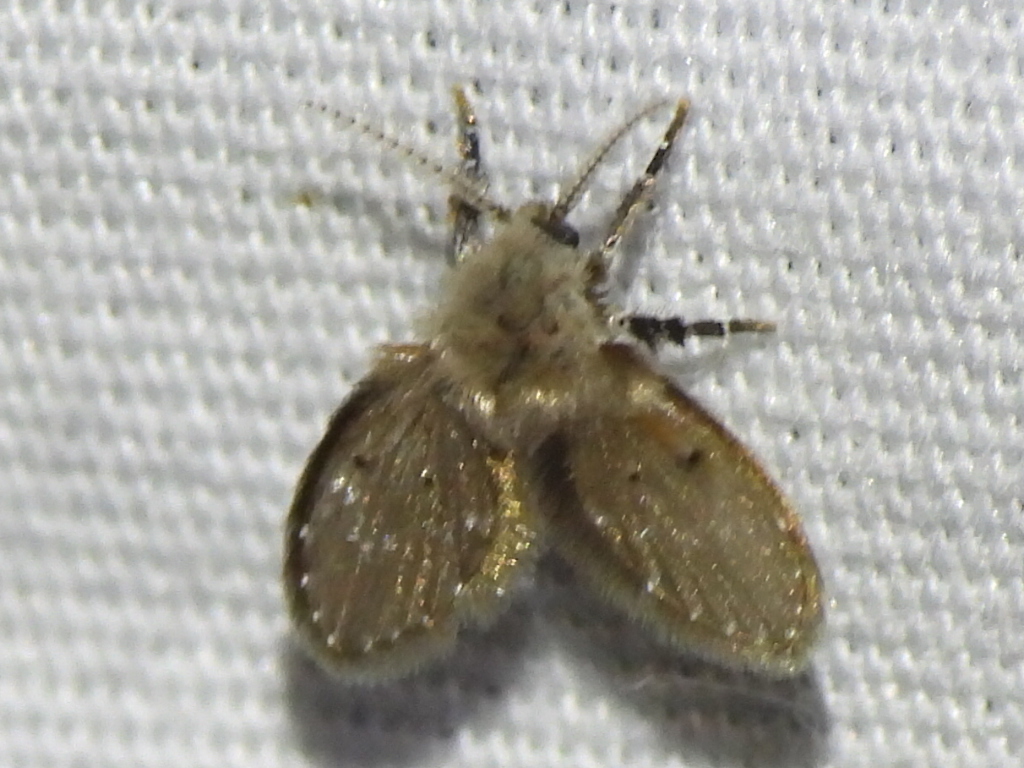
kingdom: Animalia
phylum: Arthropoda
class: Insecta
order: Diptera
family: Psychodidae
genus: Clogmia
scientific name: Clogmia albipunctatus
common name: White-spotted moth fly
